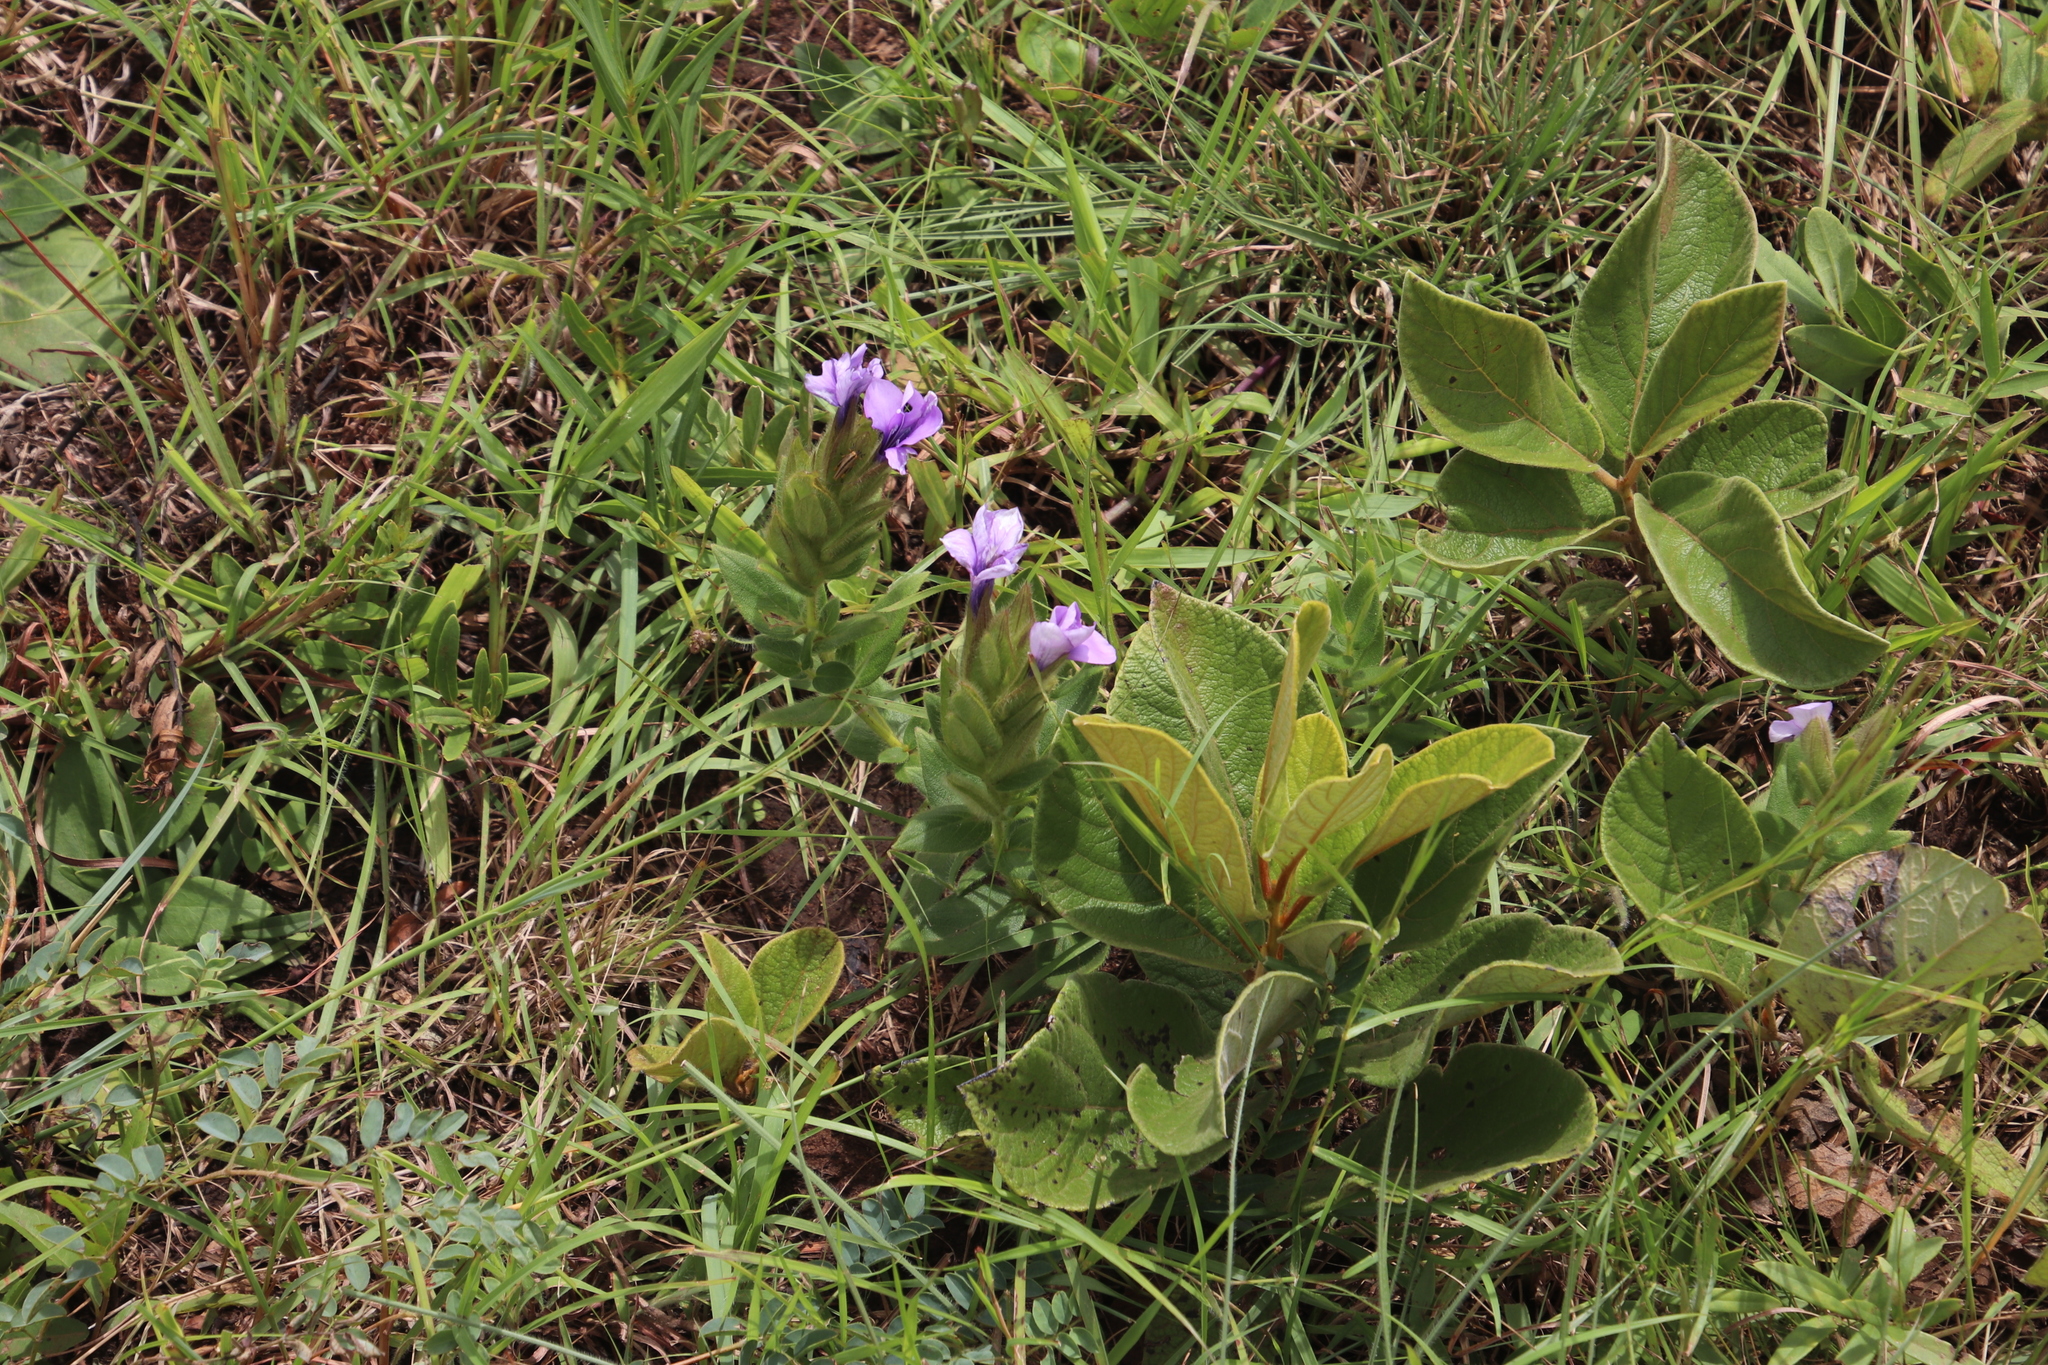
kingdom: Plantae
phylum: Tracheophyta
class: Magnoliopsida
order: Lamiales
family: Acanthaceae
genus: Barleria
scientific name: Barleria ovata
